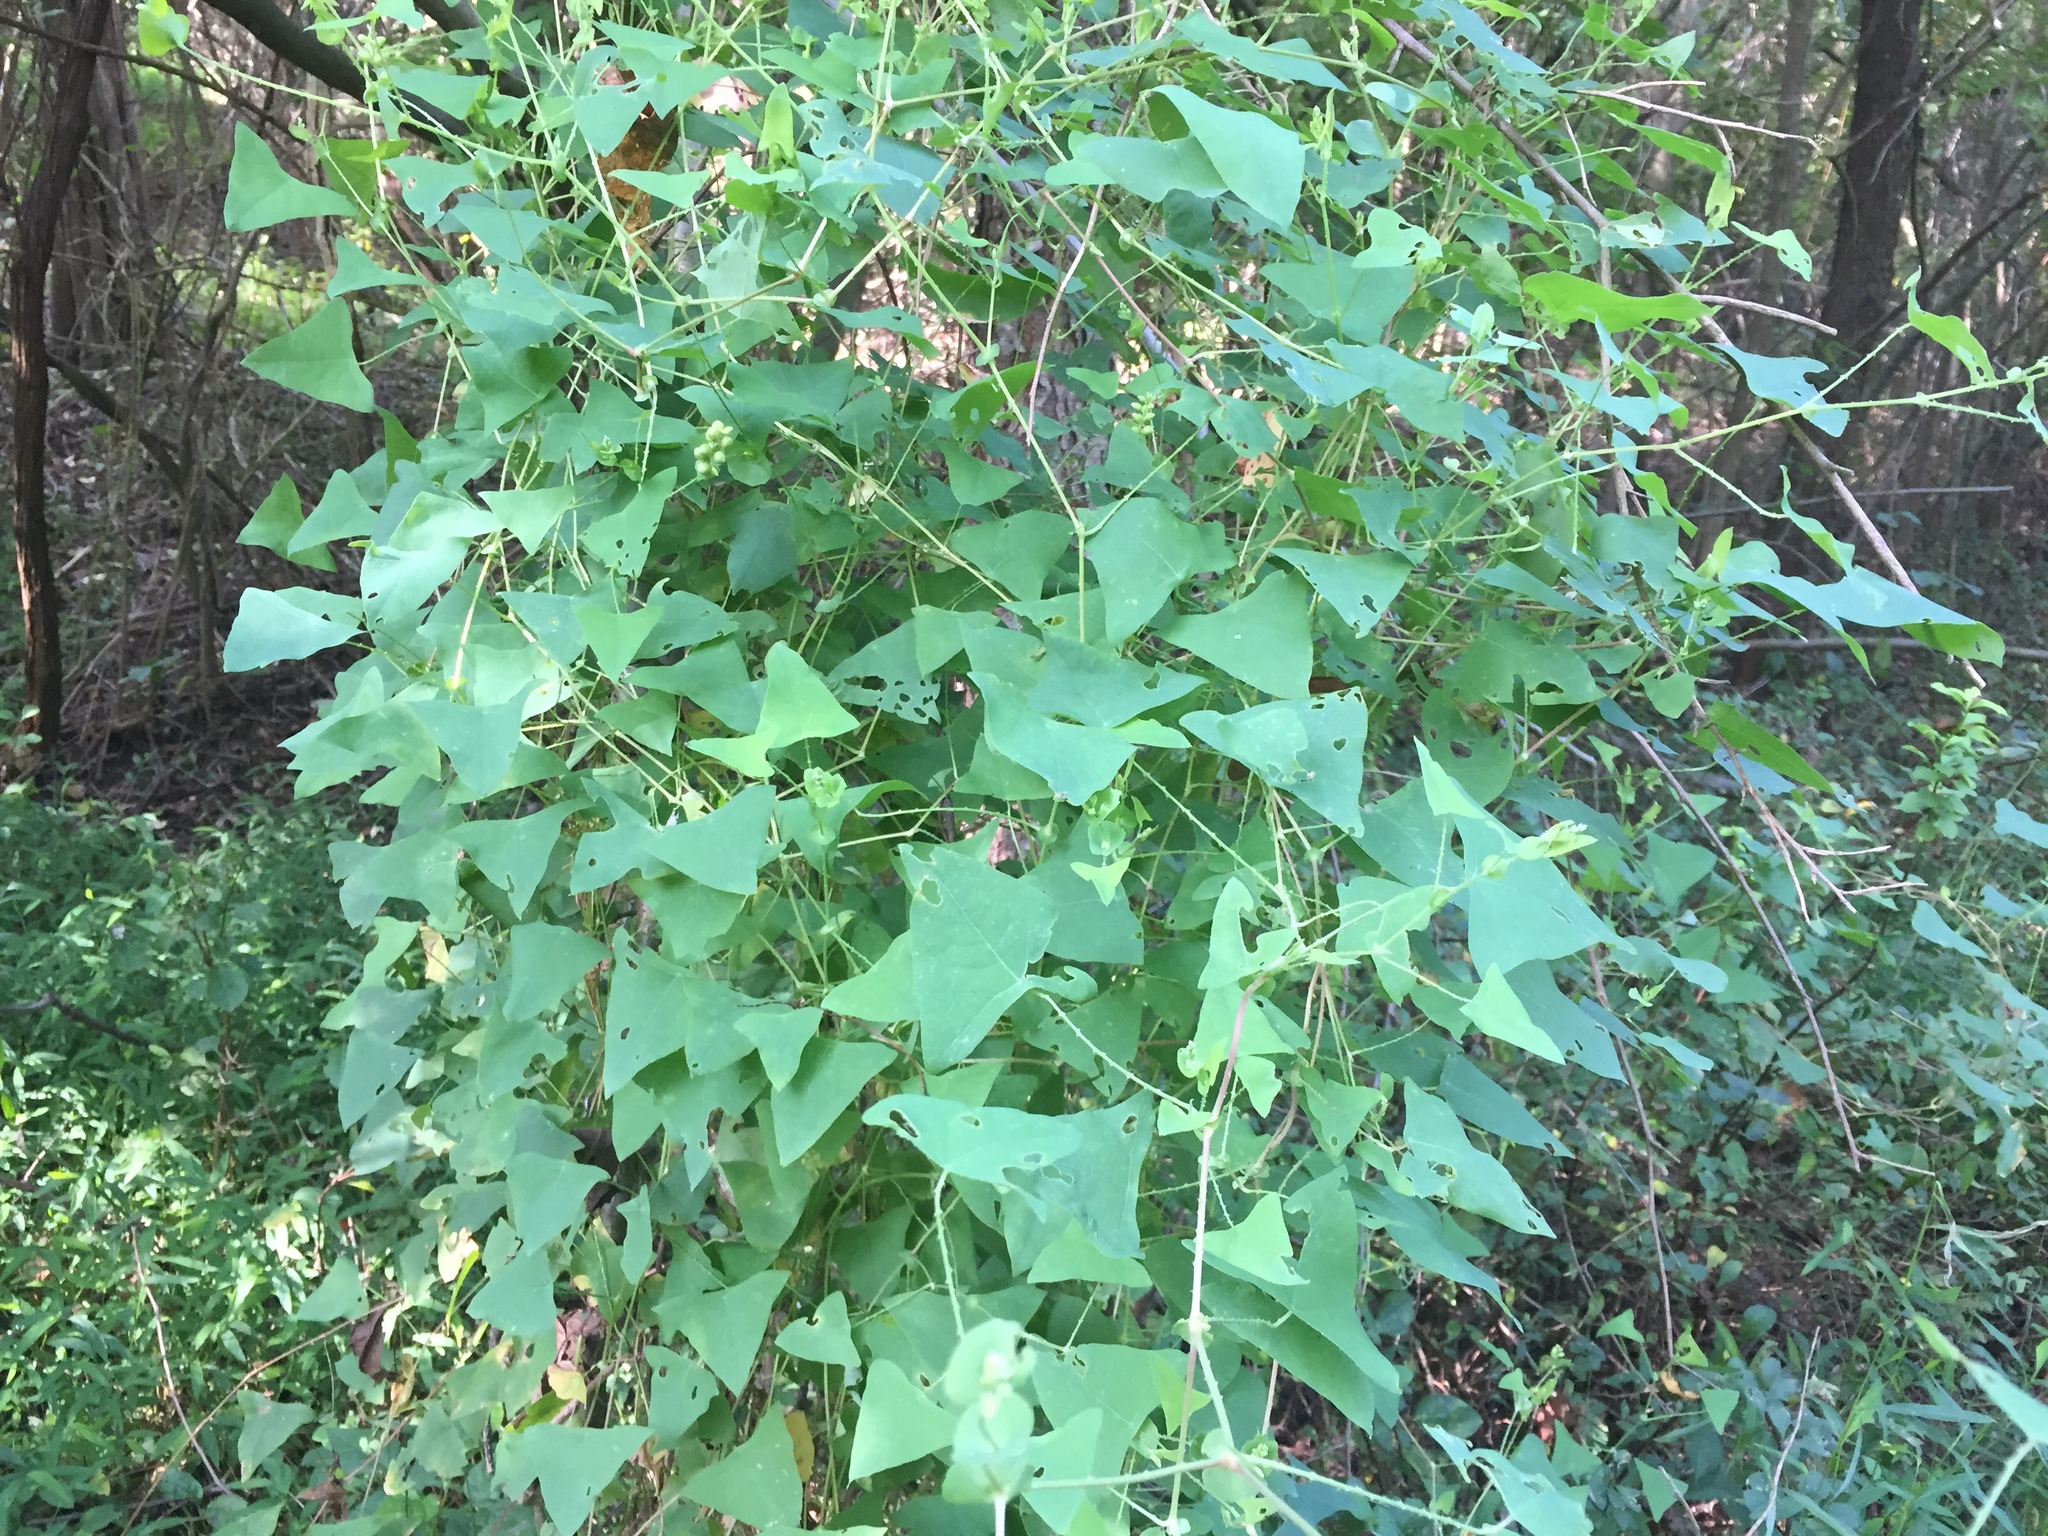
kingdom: Plantae
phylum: Tracheophyta
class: Magnoliopsida
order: Caryophyllales
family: Polygonaceae
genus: Persicaria
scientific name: Persicaria perfoliata
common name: Asiatic tearthumb
